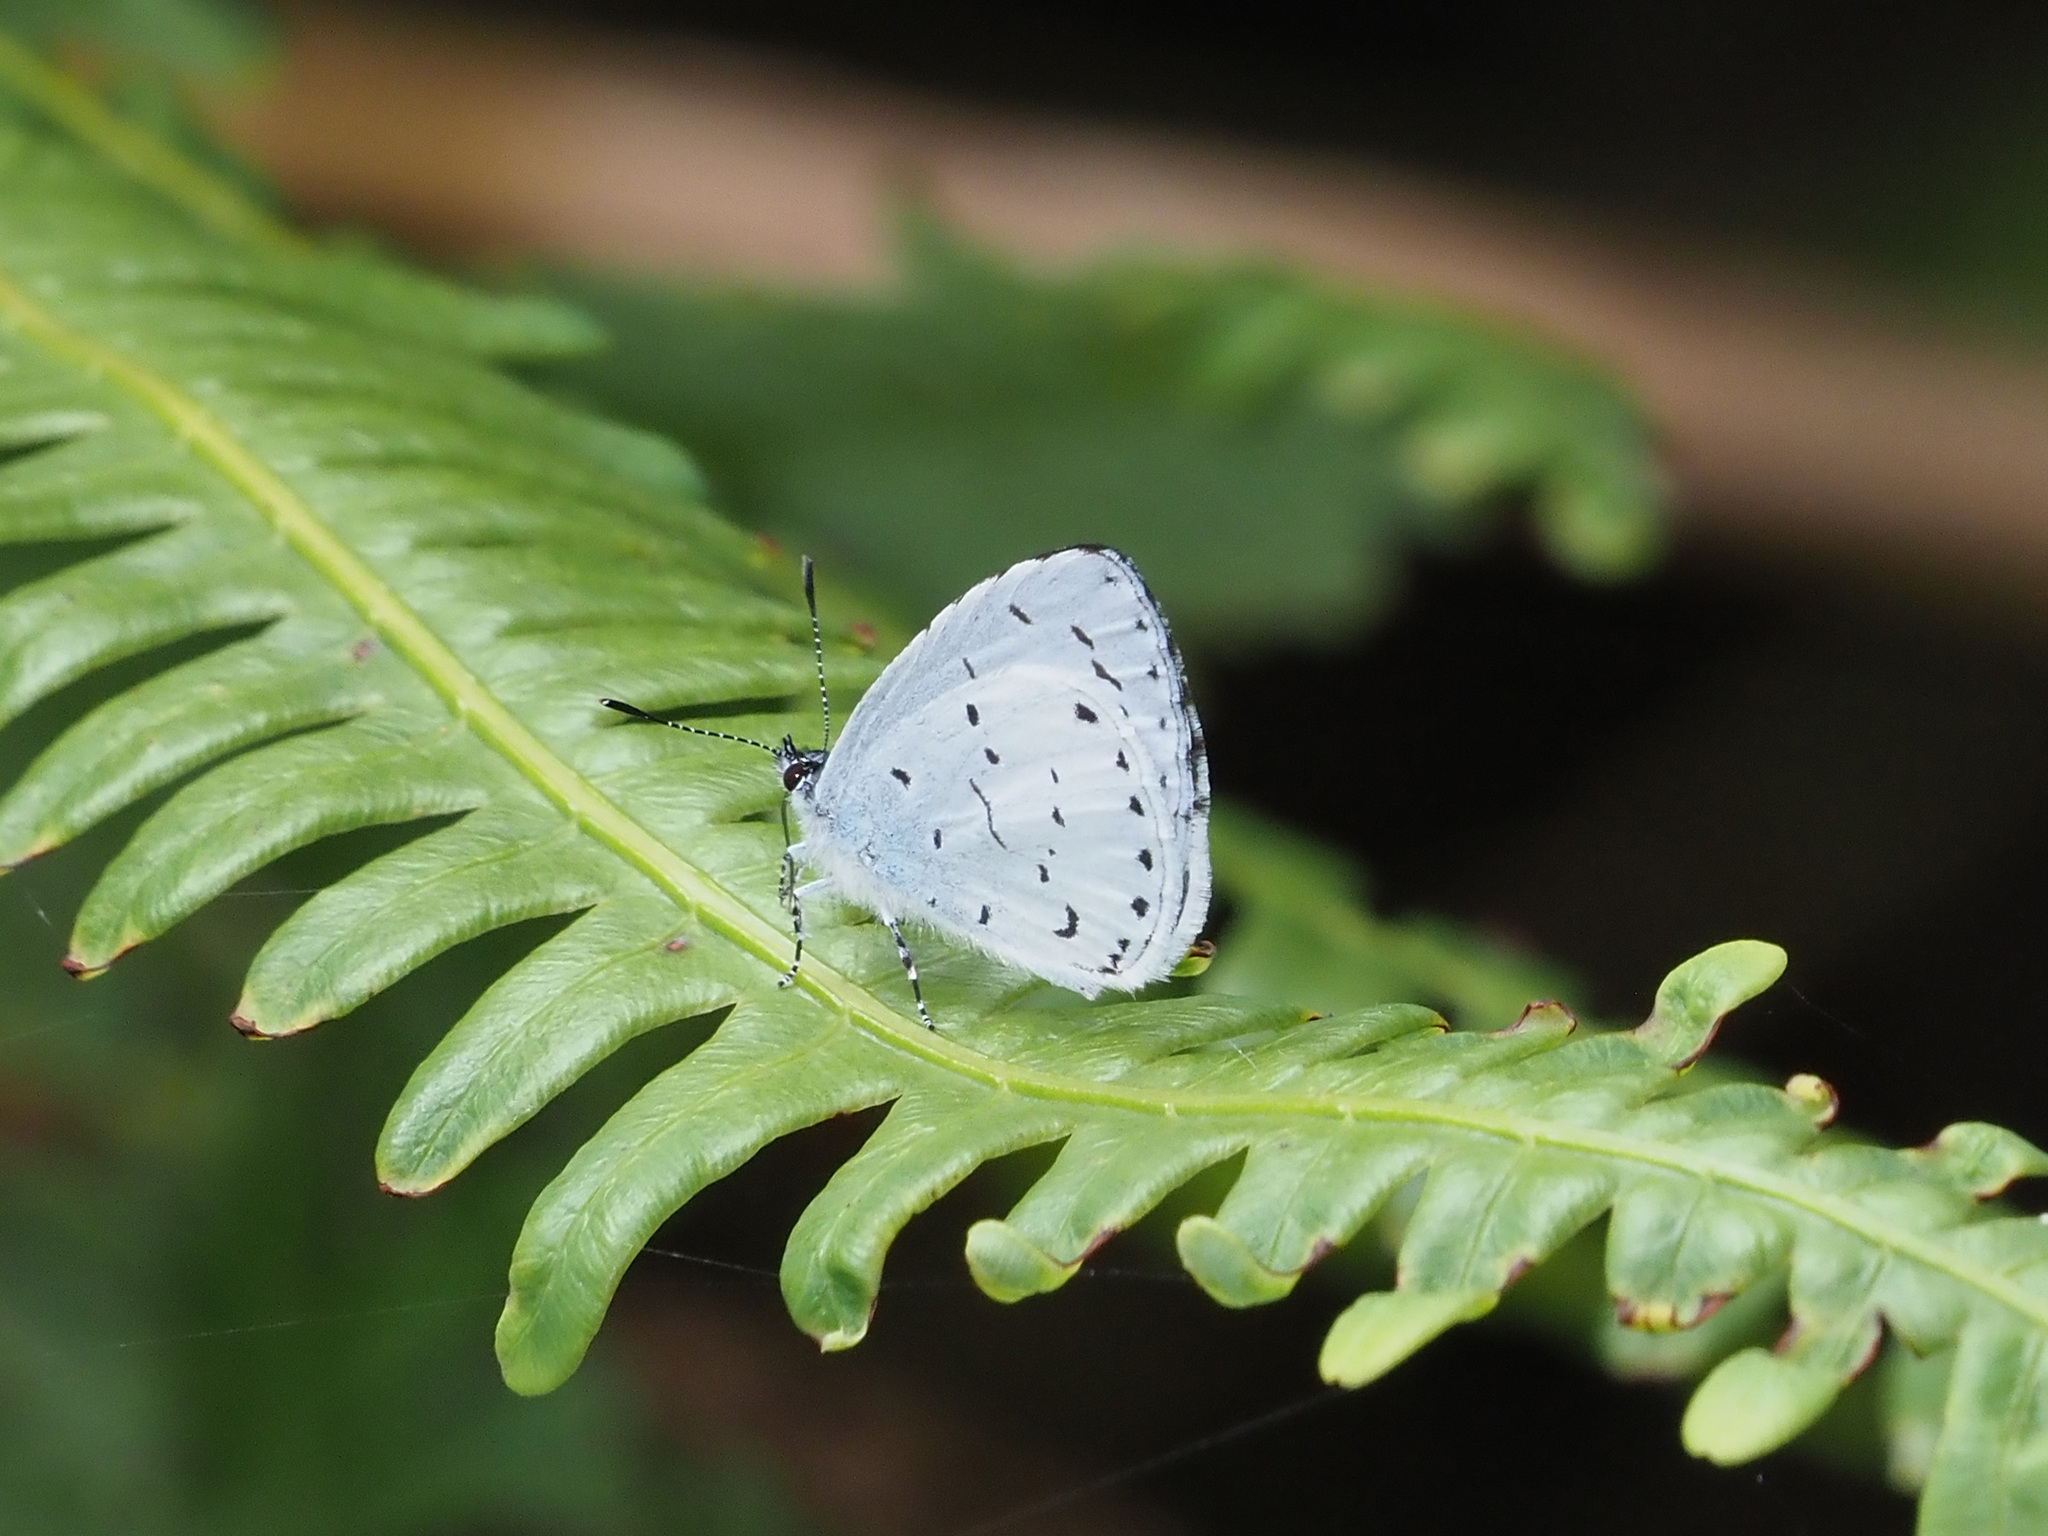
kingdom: Animalia
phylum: Arthropoda
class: Insecta
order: Lepidoptera
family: Lycaenidae
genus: Udara
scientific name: Udara
